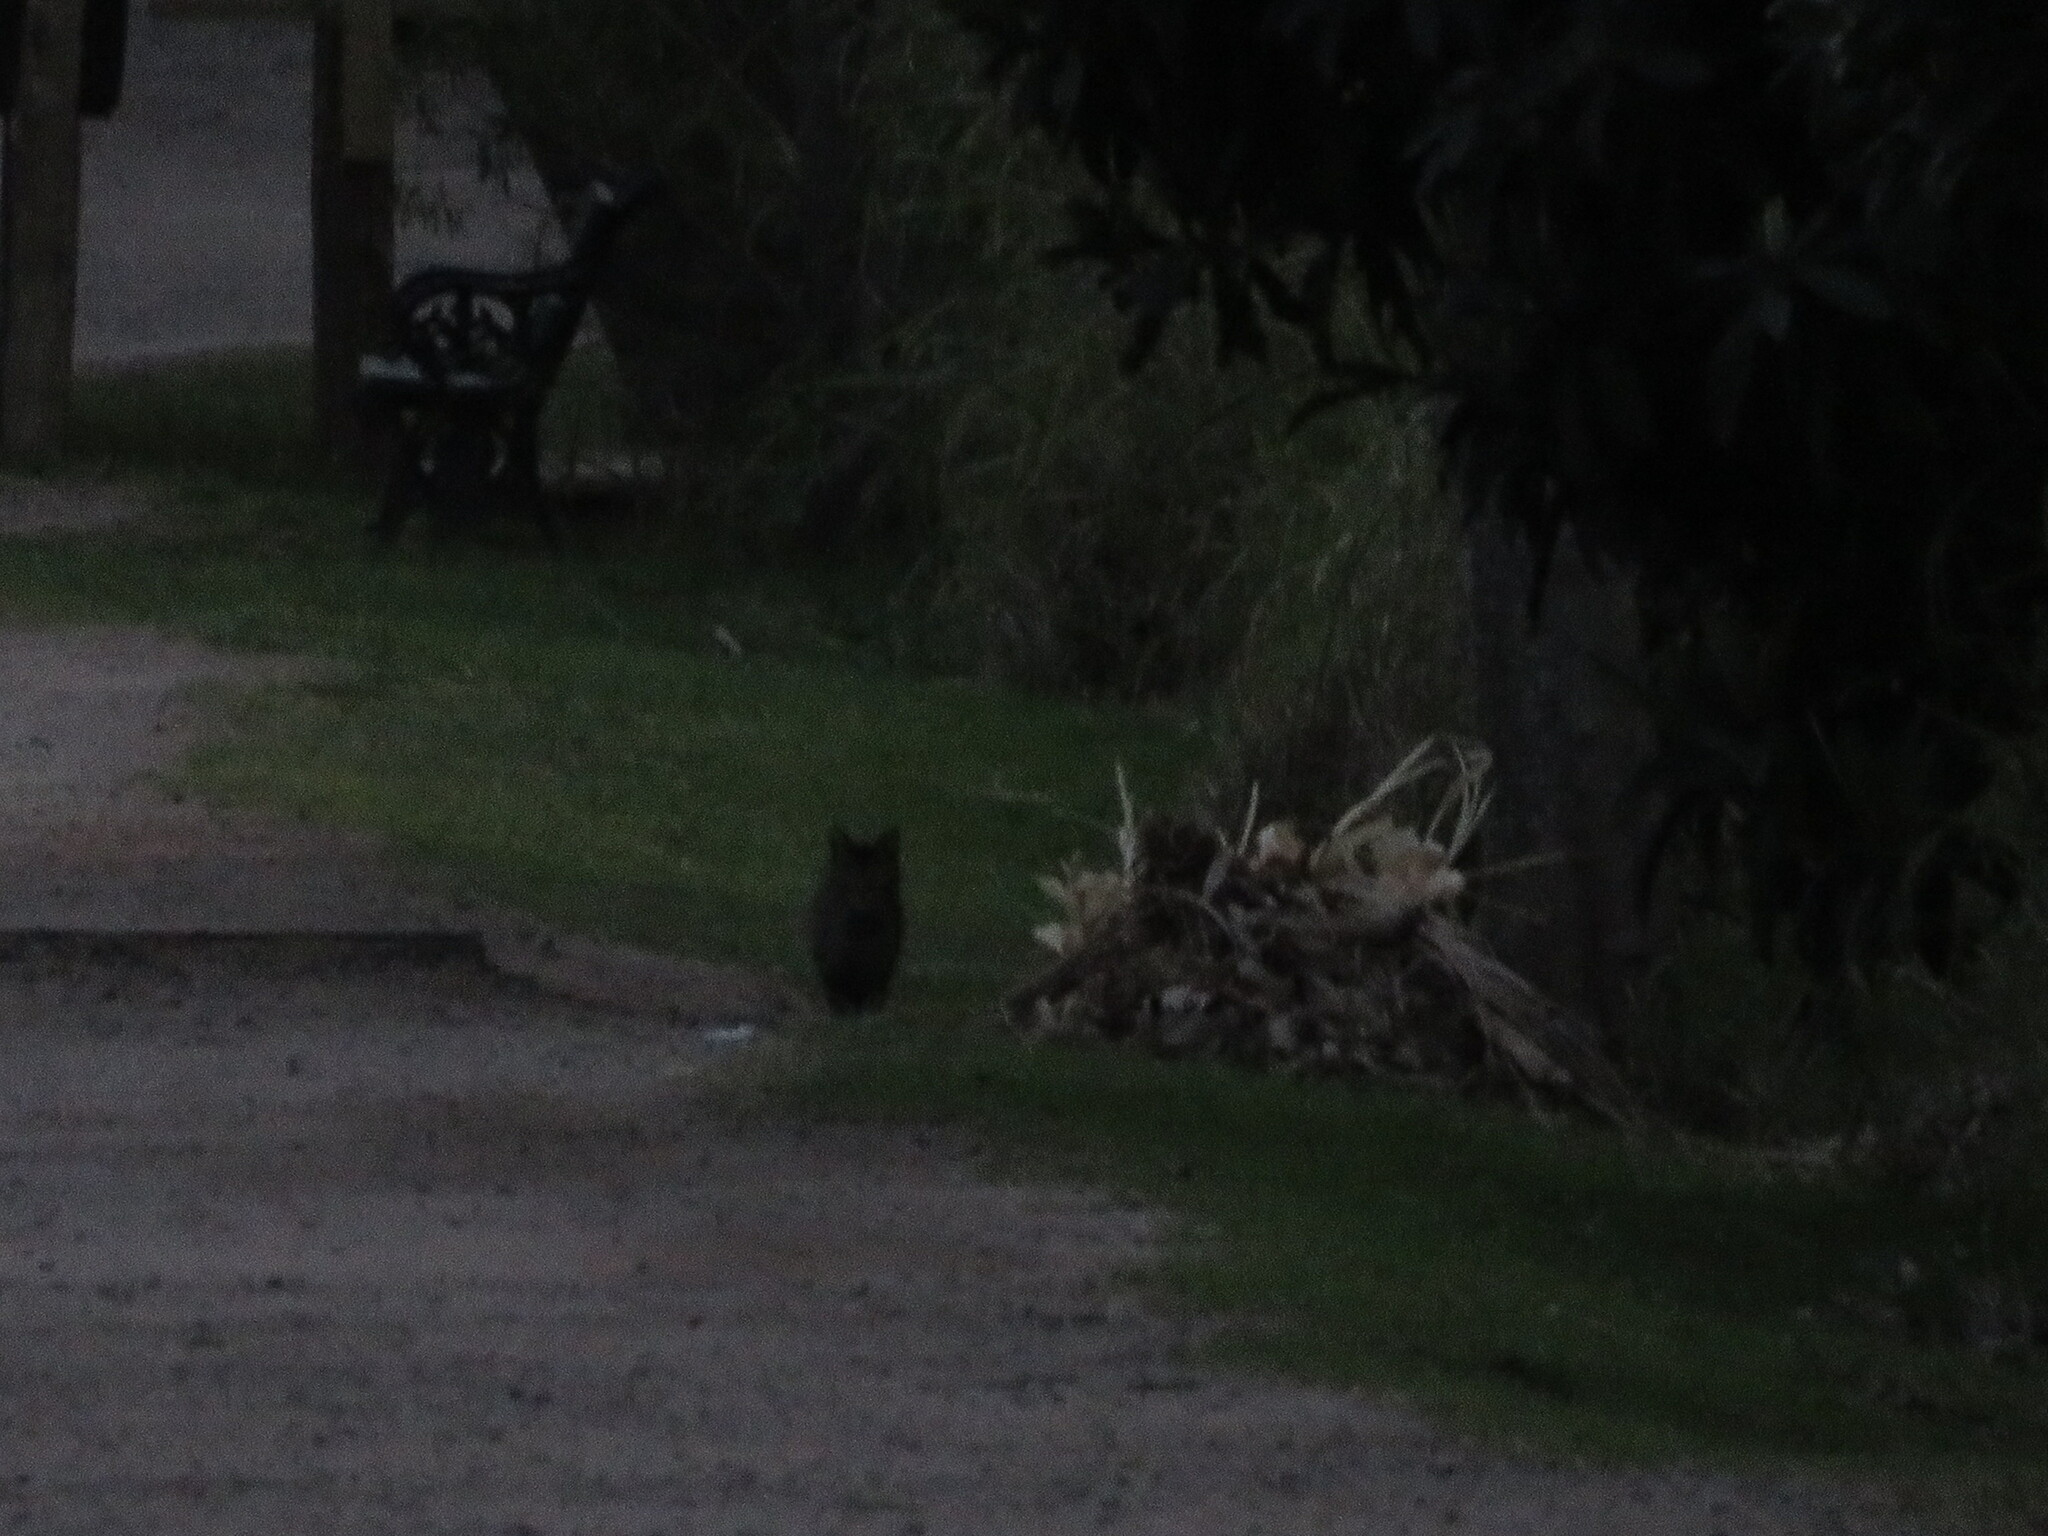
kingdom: Animalia
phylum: Chordata
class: Mammalia
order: Carnivora
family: Felidae
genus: Felis
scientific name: Felis catus
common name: Domestic cat
